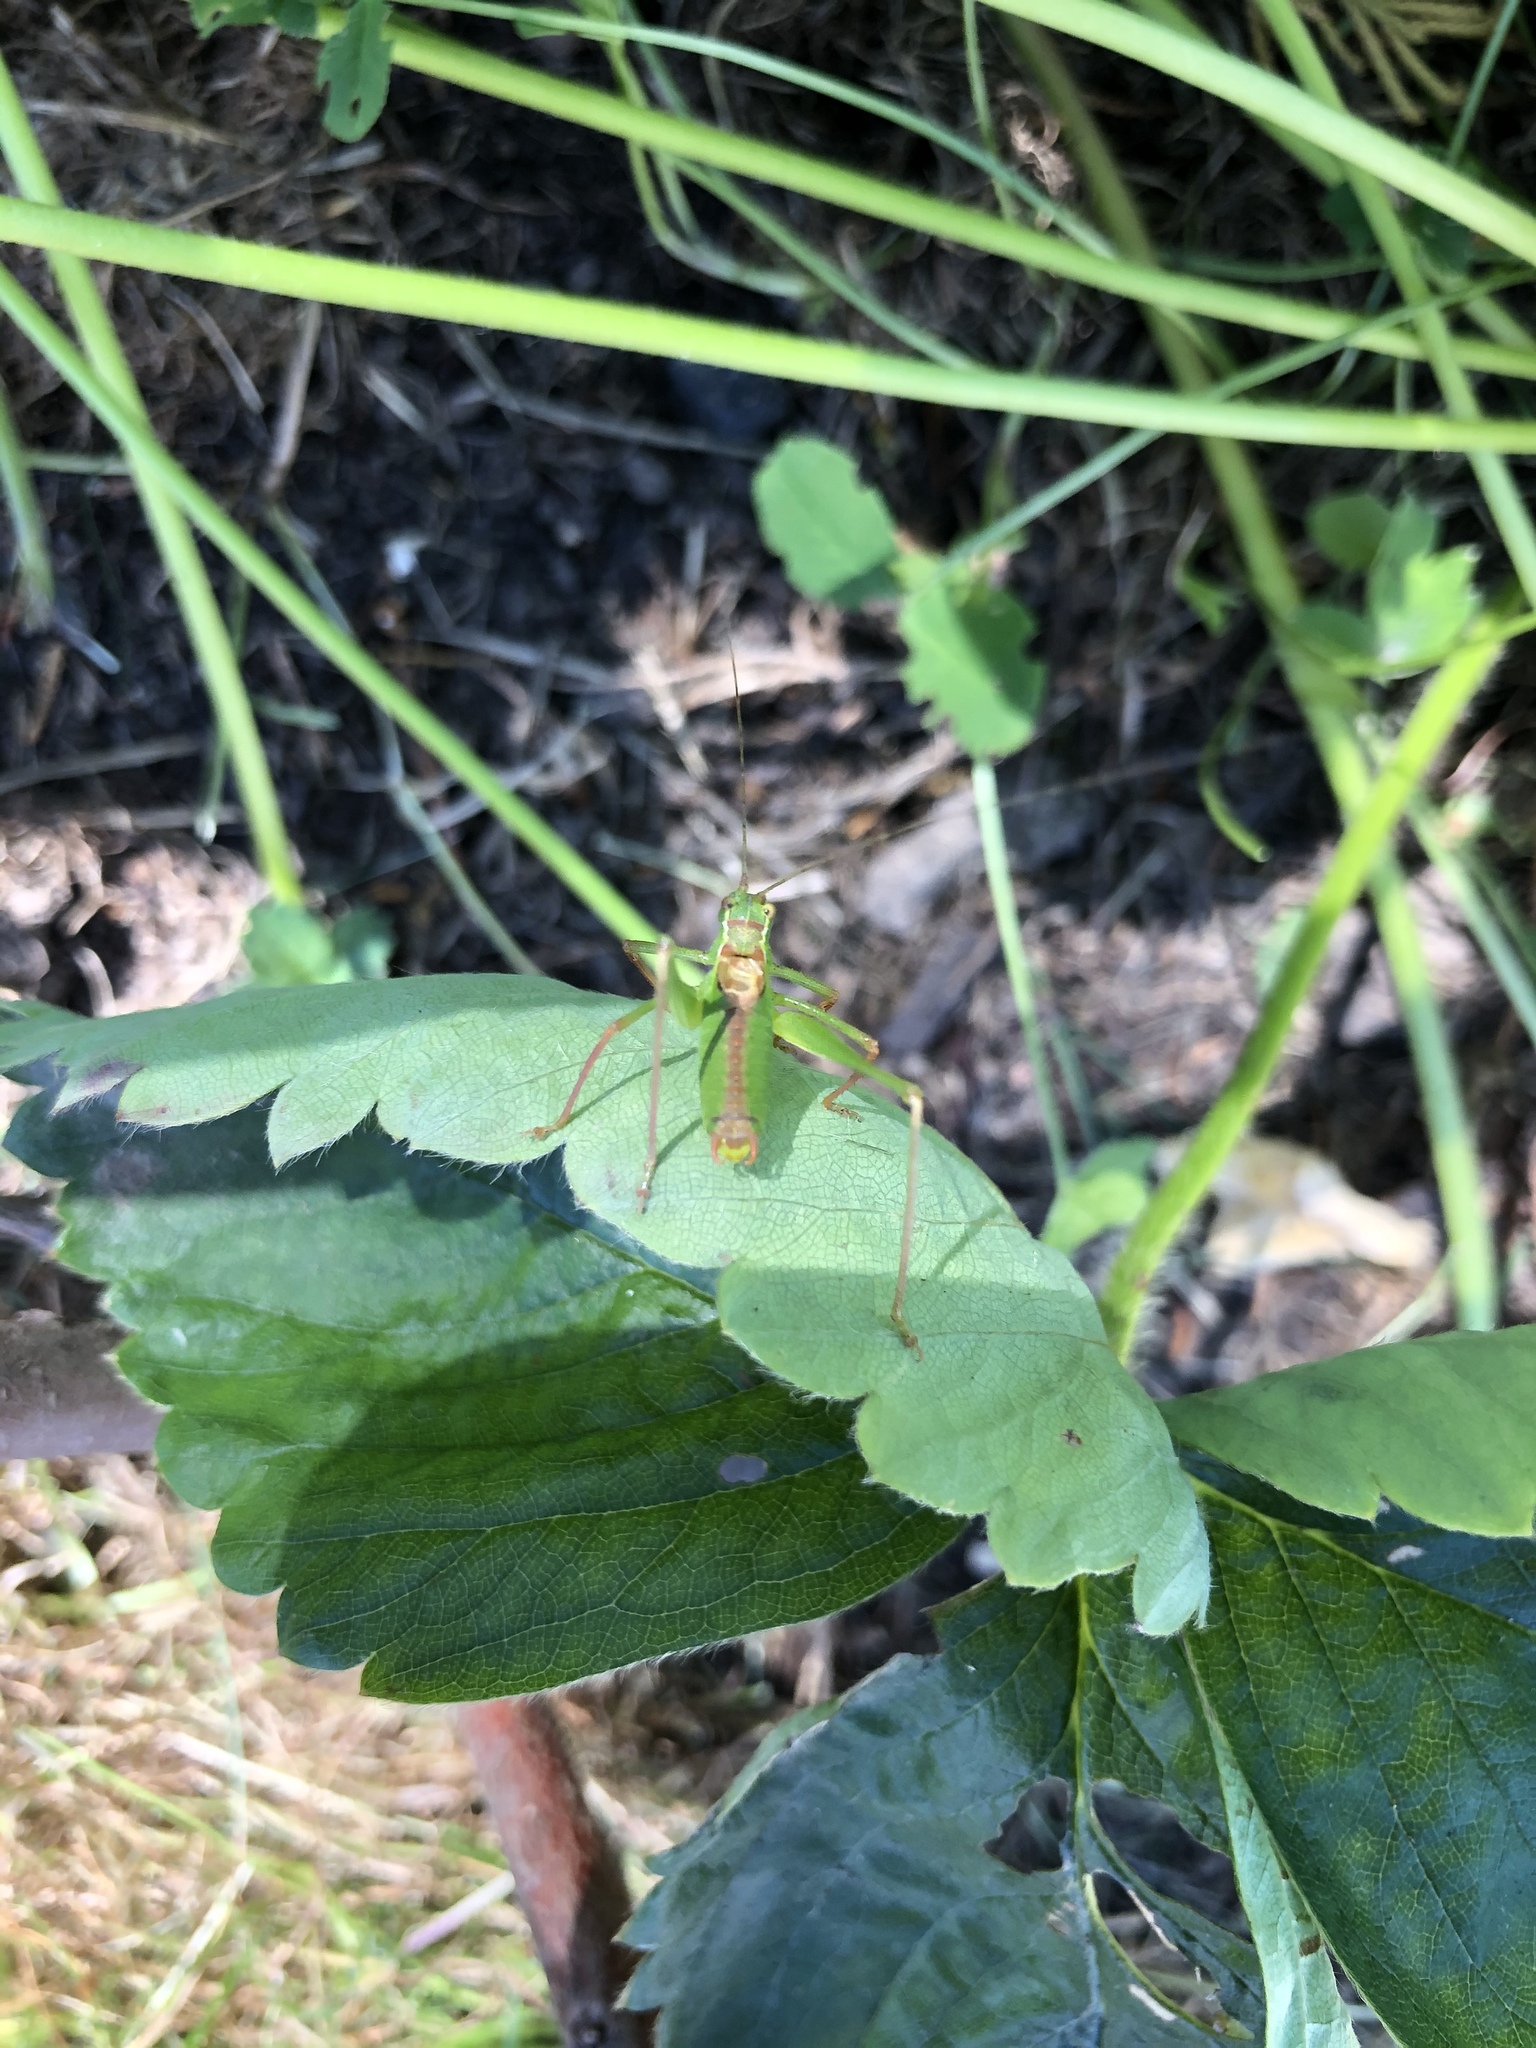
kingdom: Animalia
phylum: Arthropoda
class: Insecta
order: Orthoptera
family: Tettigoniidae
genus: Leptophyes
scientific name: Leptophyes punctatissima
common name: Speckled bush-cricket
